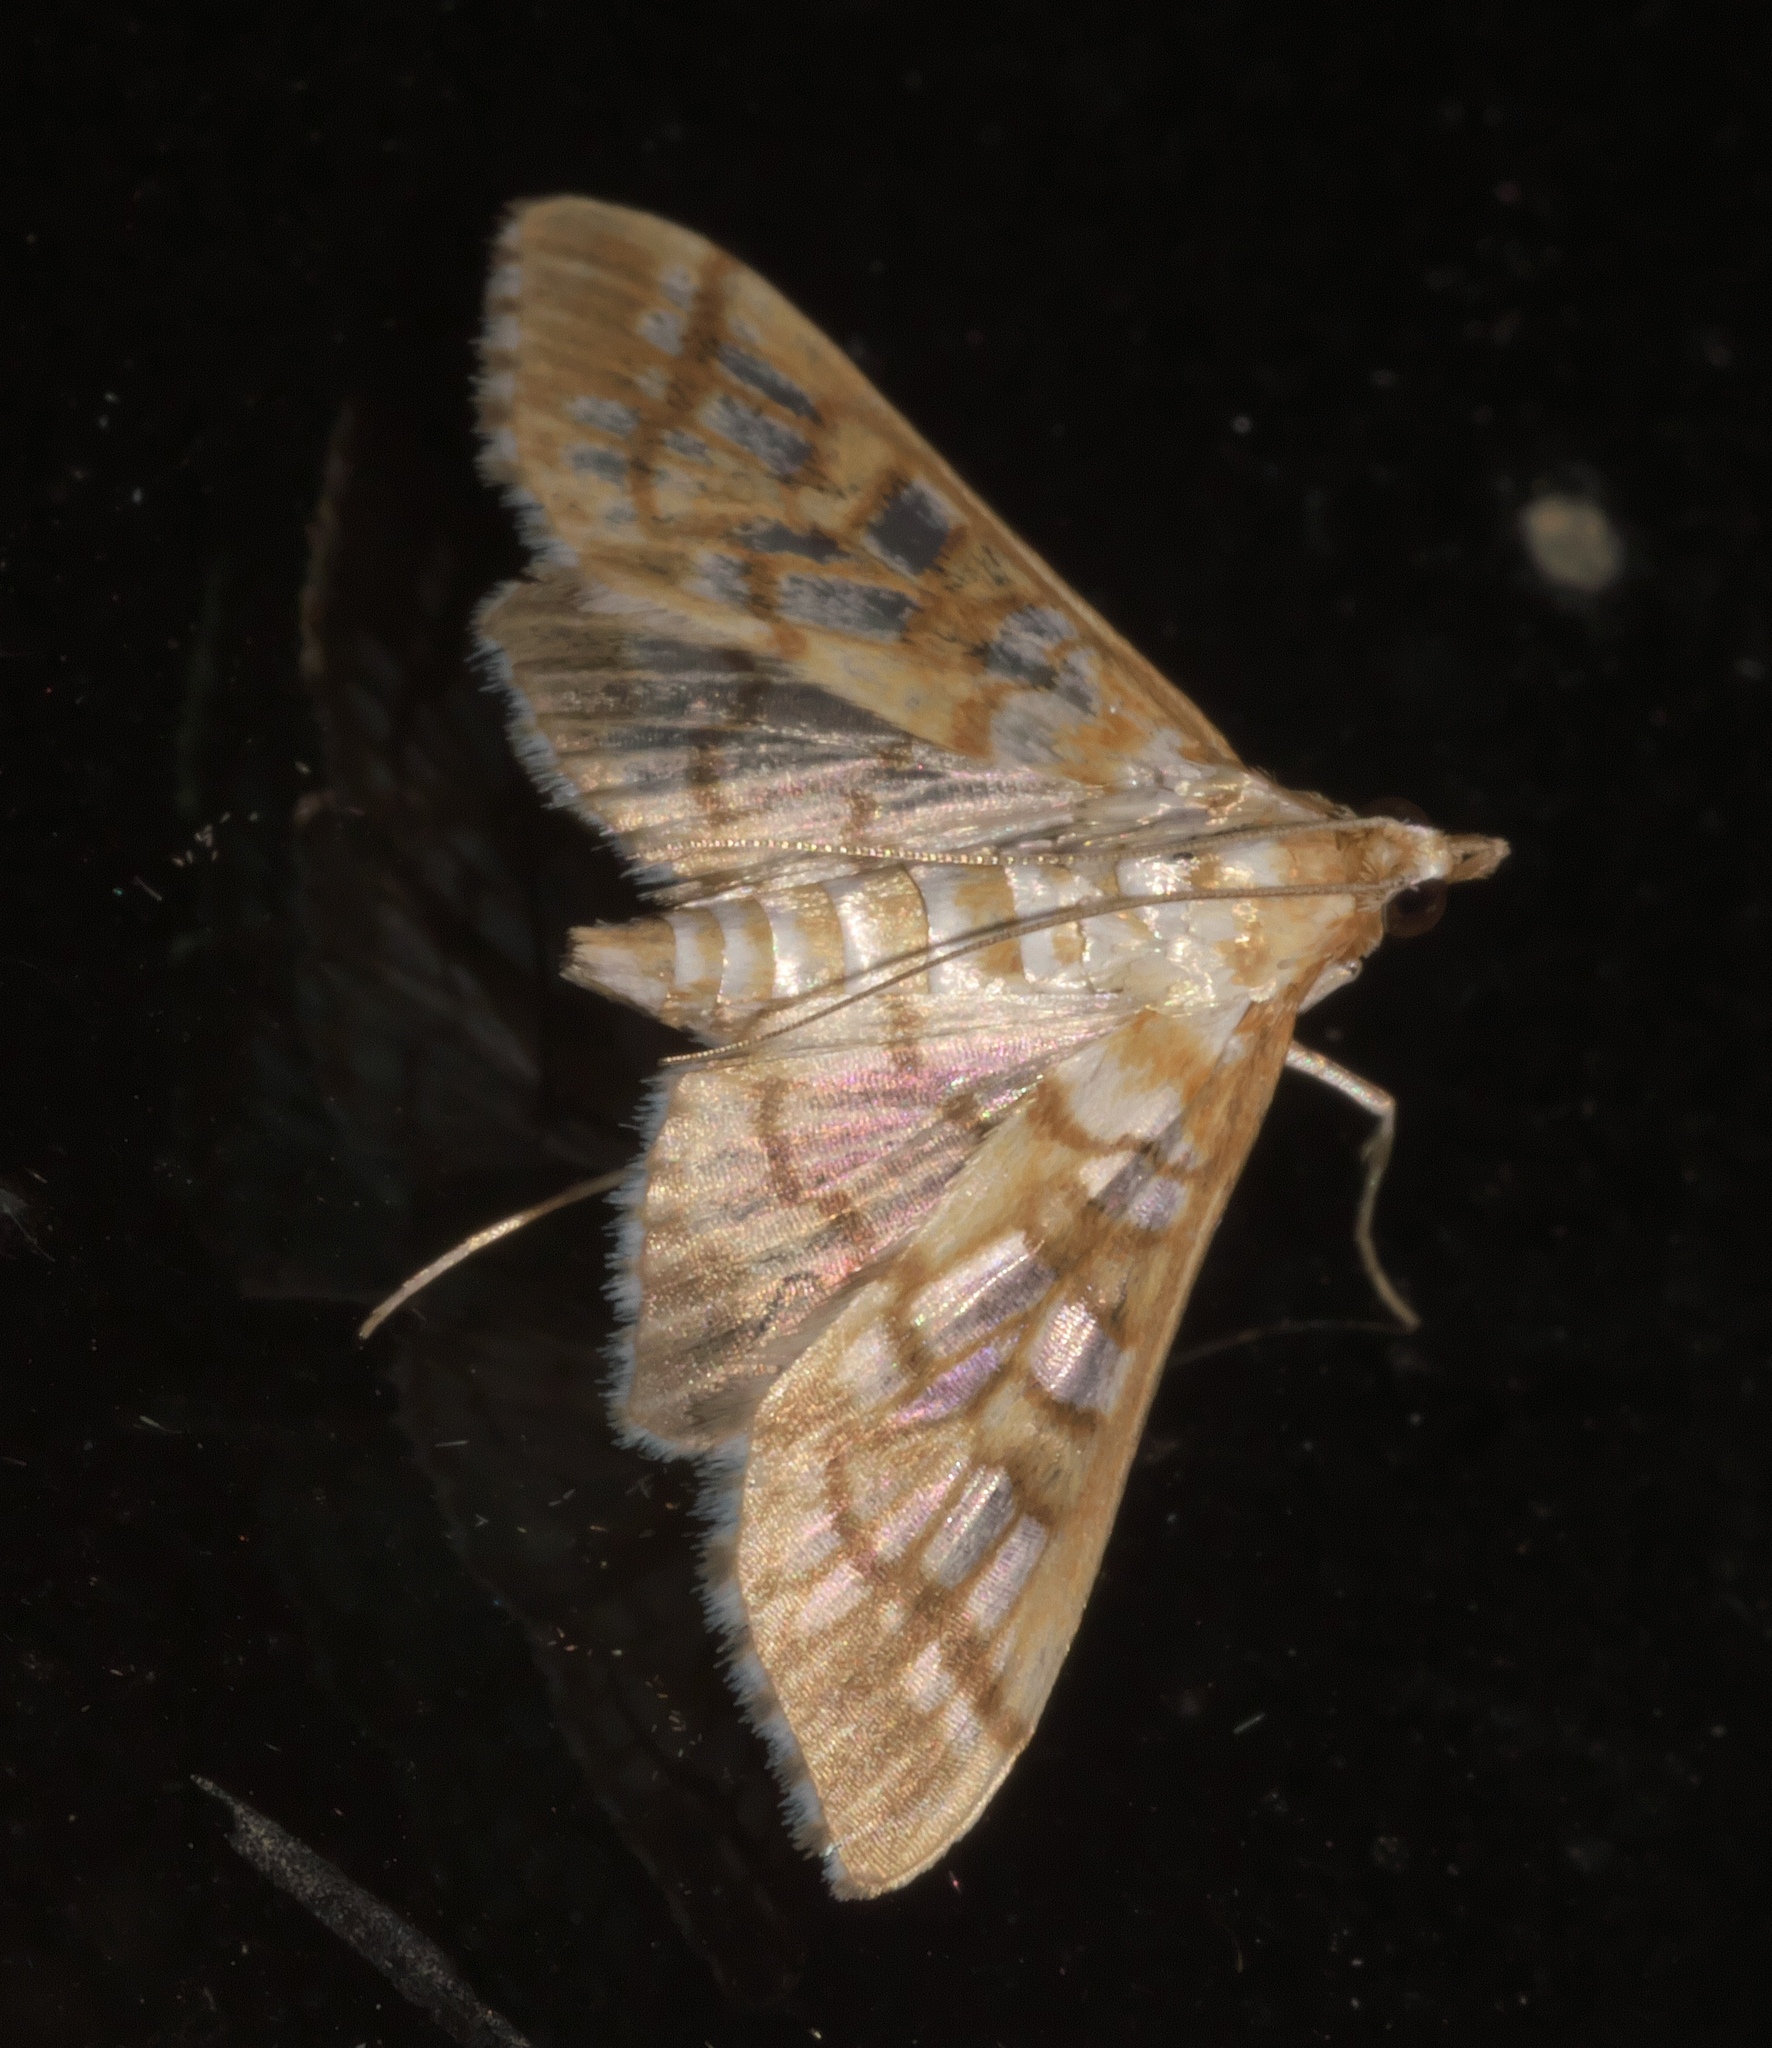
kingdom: Animalia
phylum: Arthropoda
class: Insecta
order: Lepidoptera
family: Crambidae
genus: Epipagis
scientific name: Epipagis fenestralis
